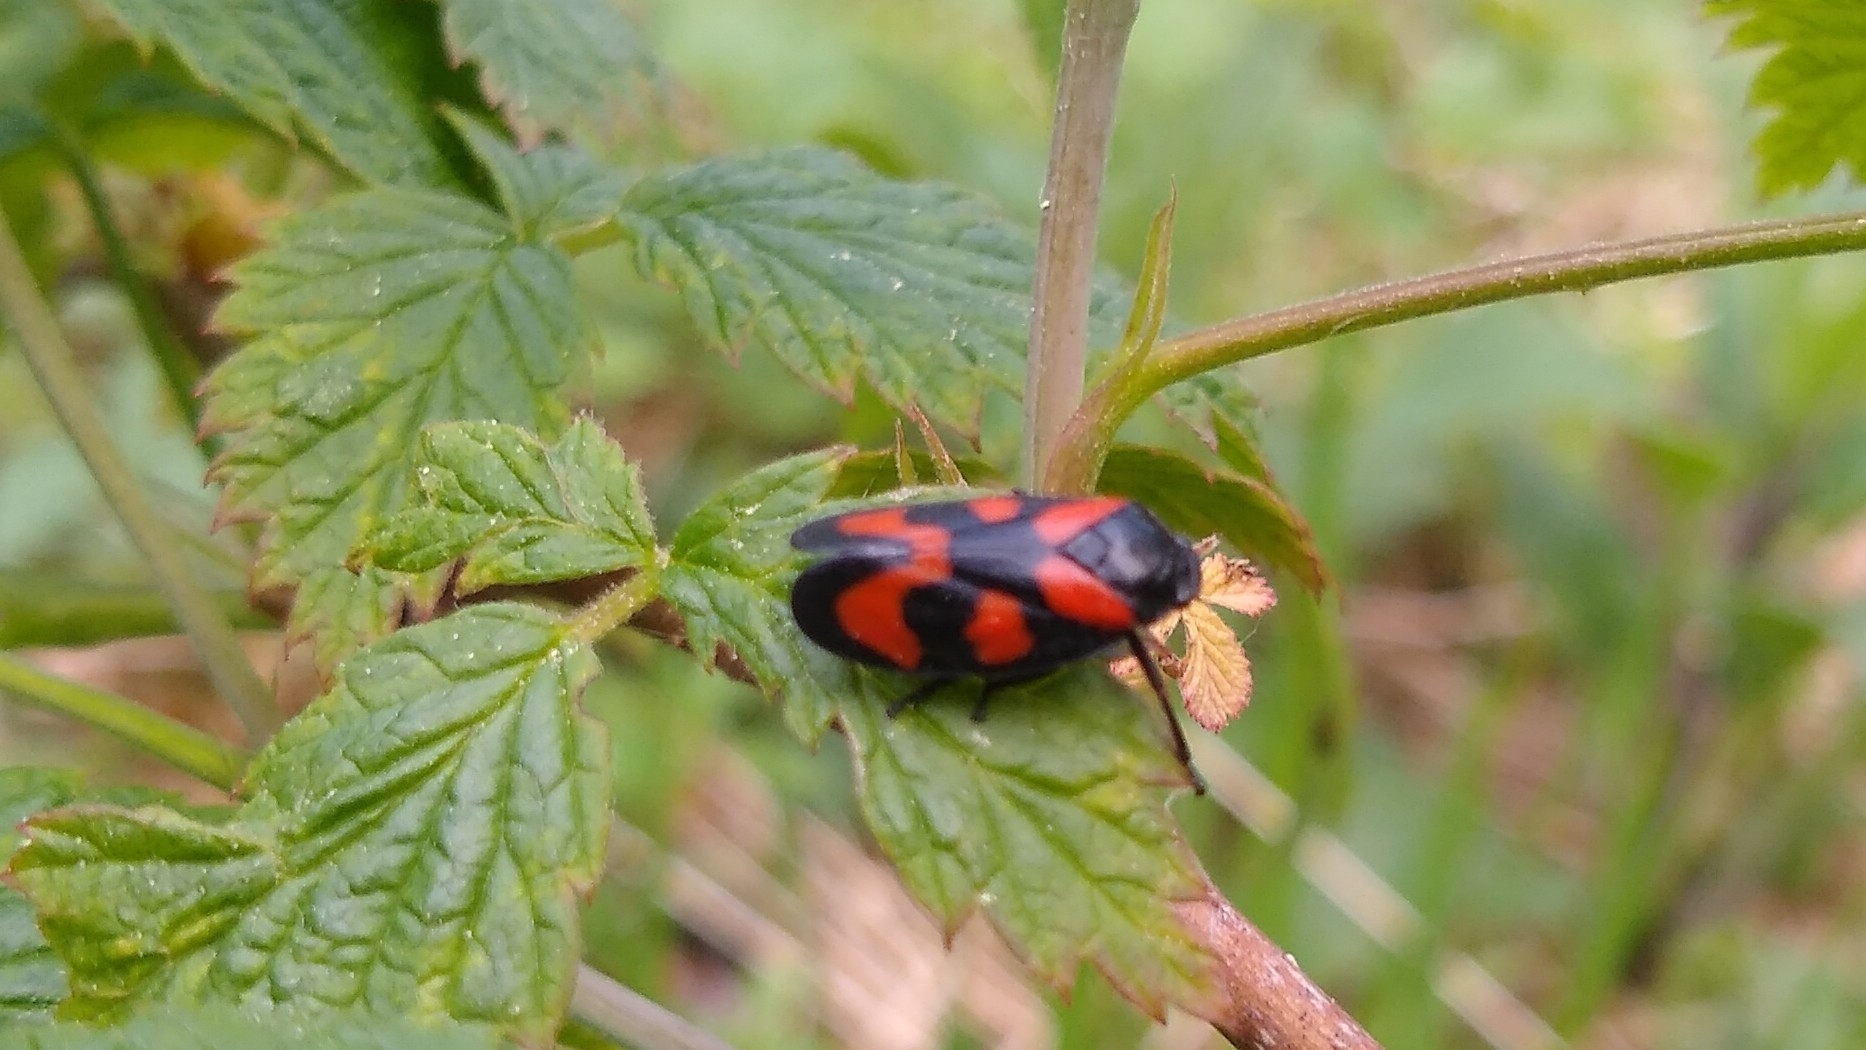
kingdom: Animalia
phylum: Arthropoda
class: Insecta
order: Hemiptera
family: Cercopidae
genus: Cercopis
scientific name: Cercopis vulnerata
